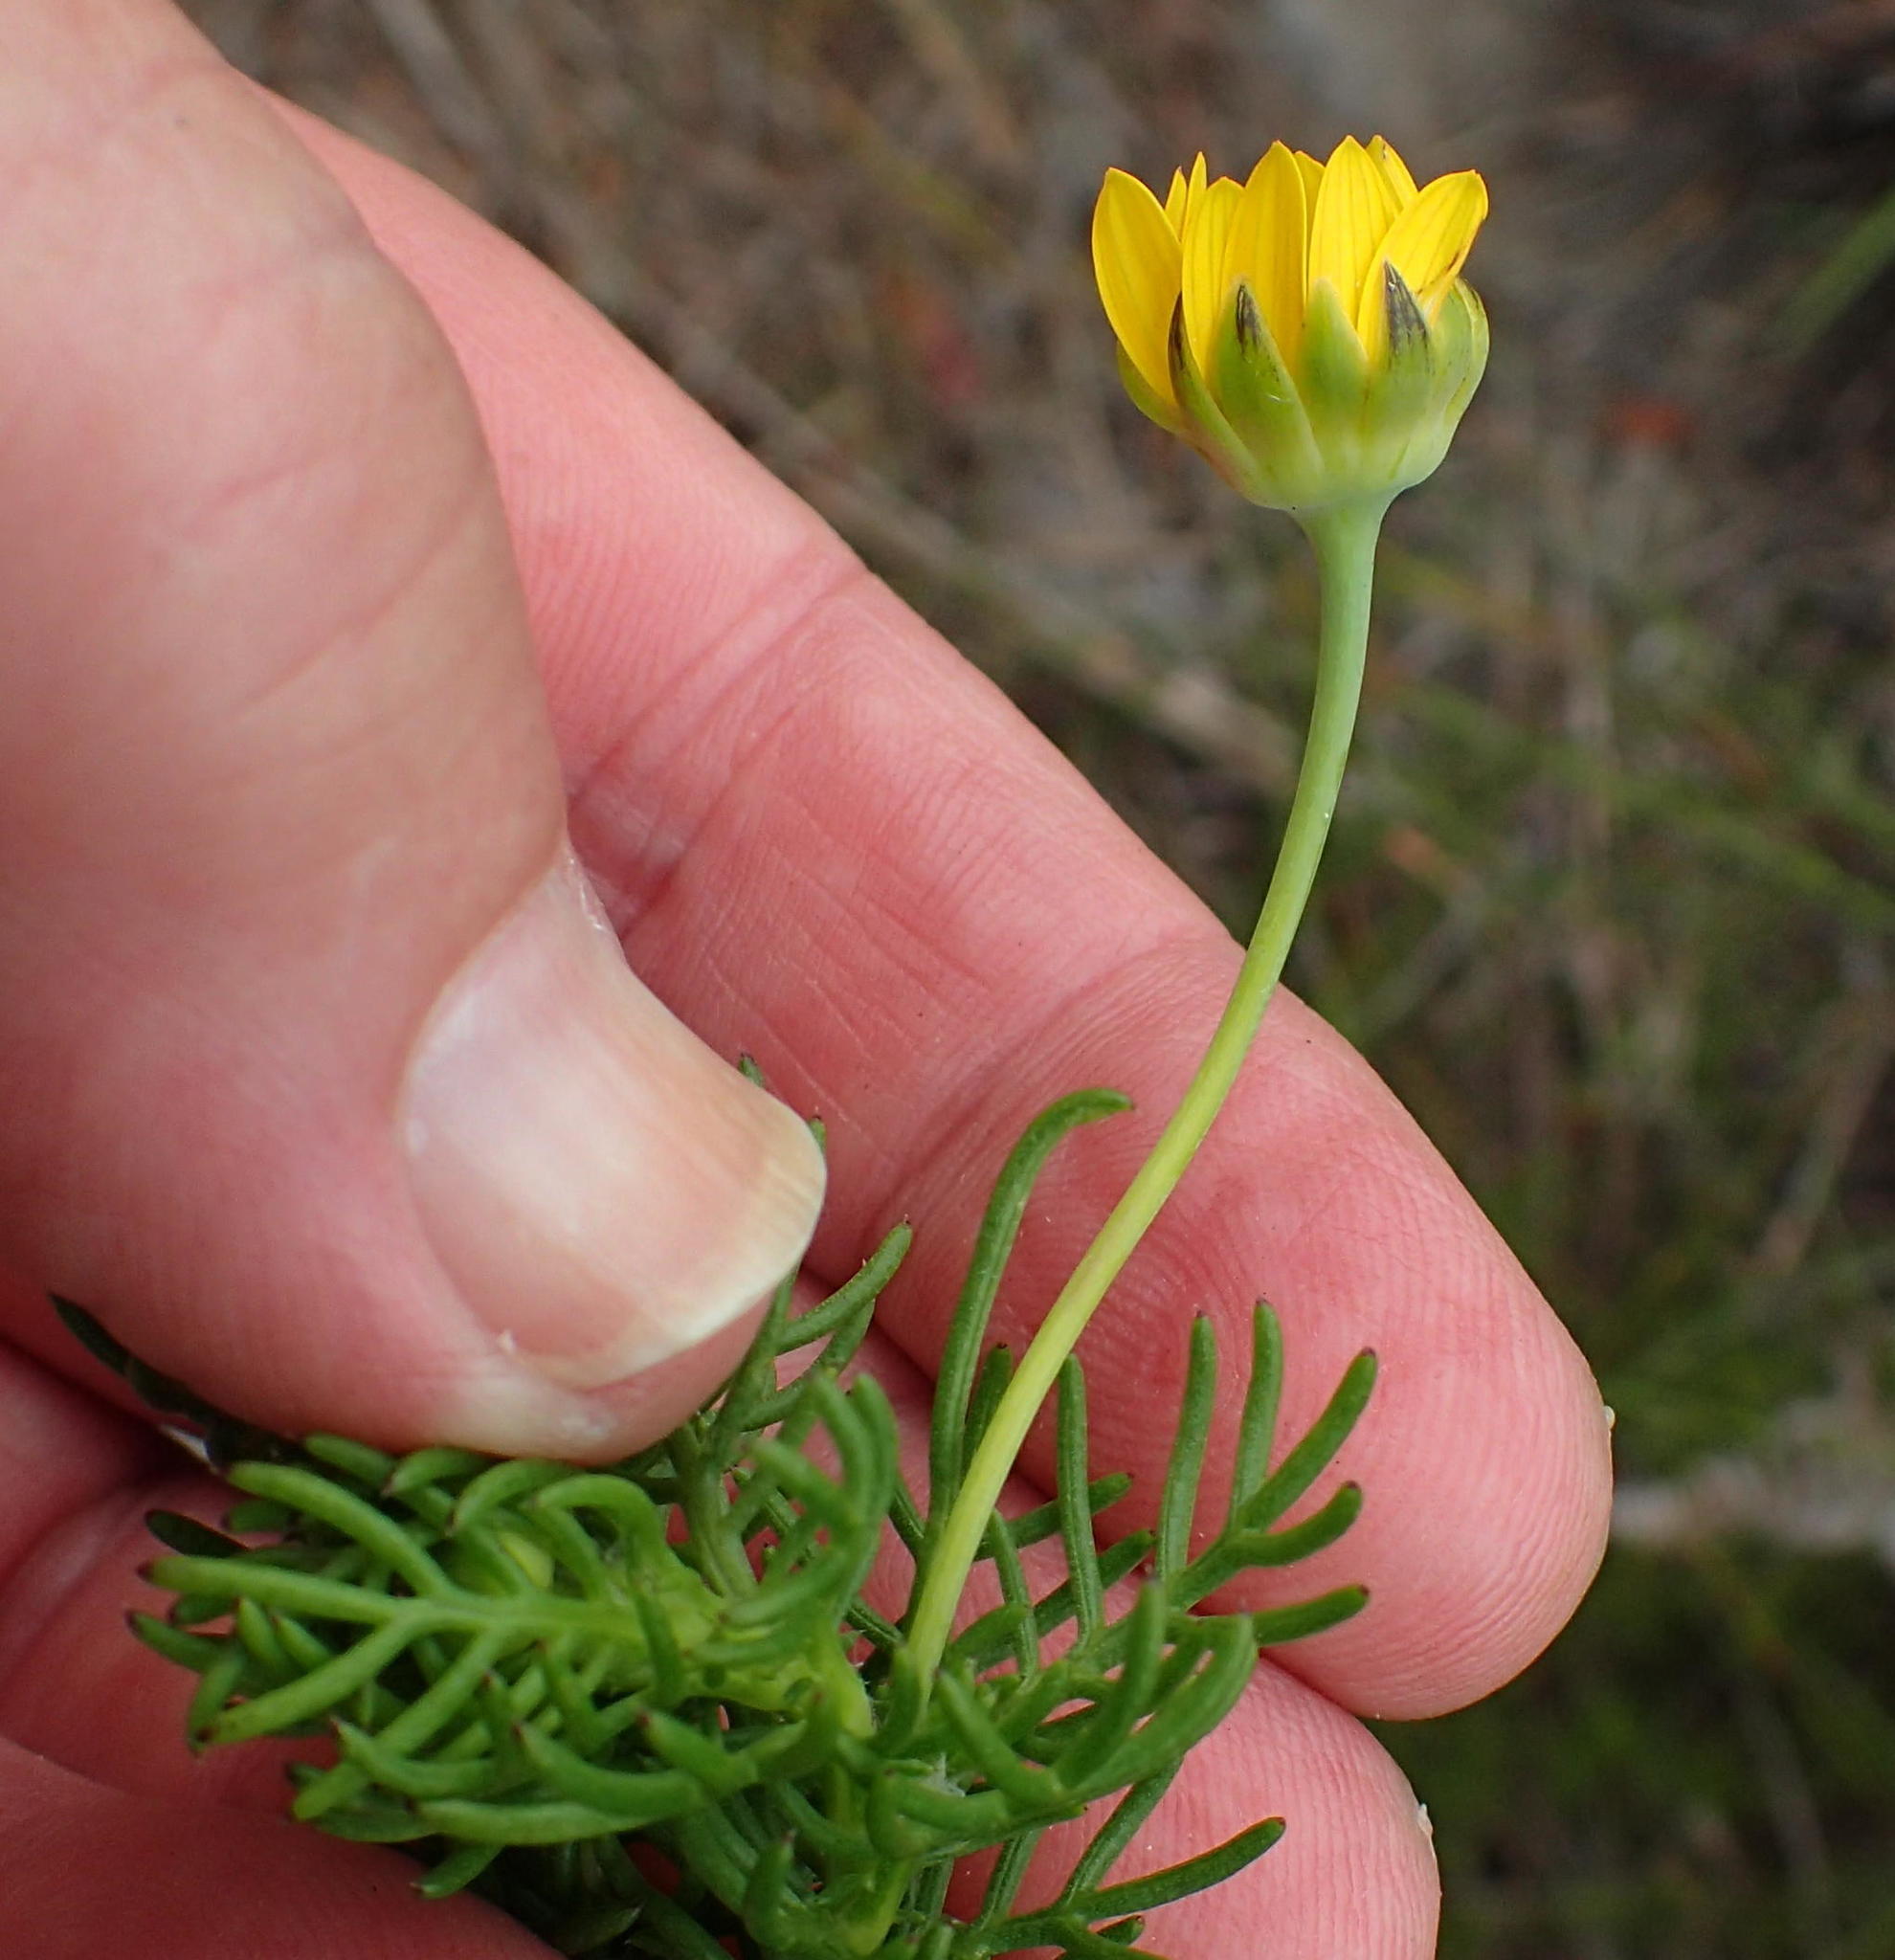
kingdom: Plantae
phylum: Tracheophyta
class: Magnoliopsida
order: Asterales
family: Asteraceae
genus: Euryops
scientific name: Euryops pinnatipartitus
